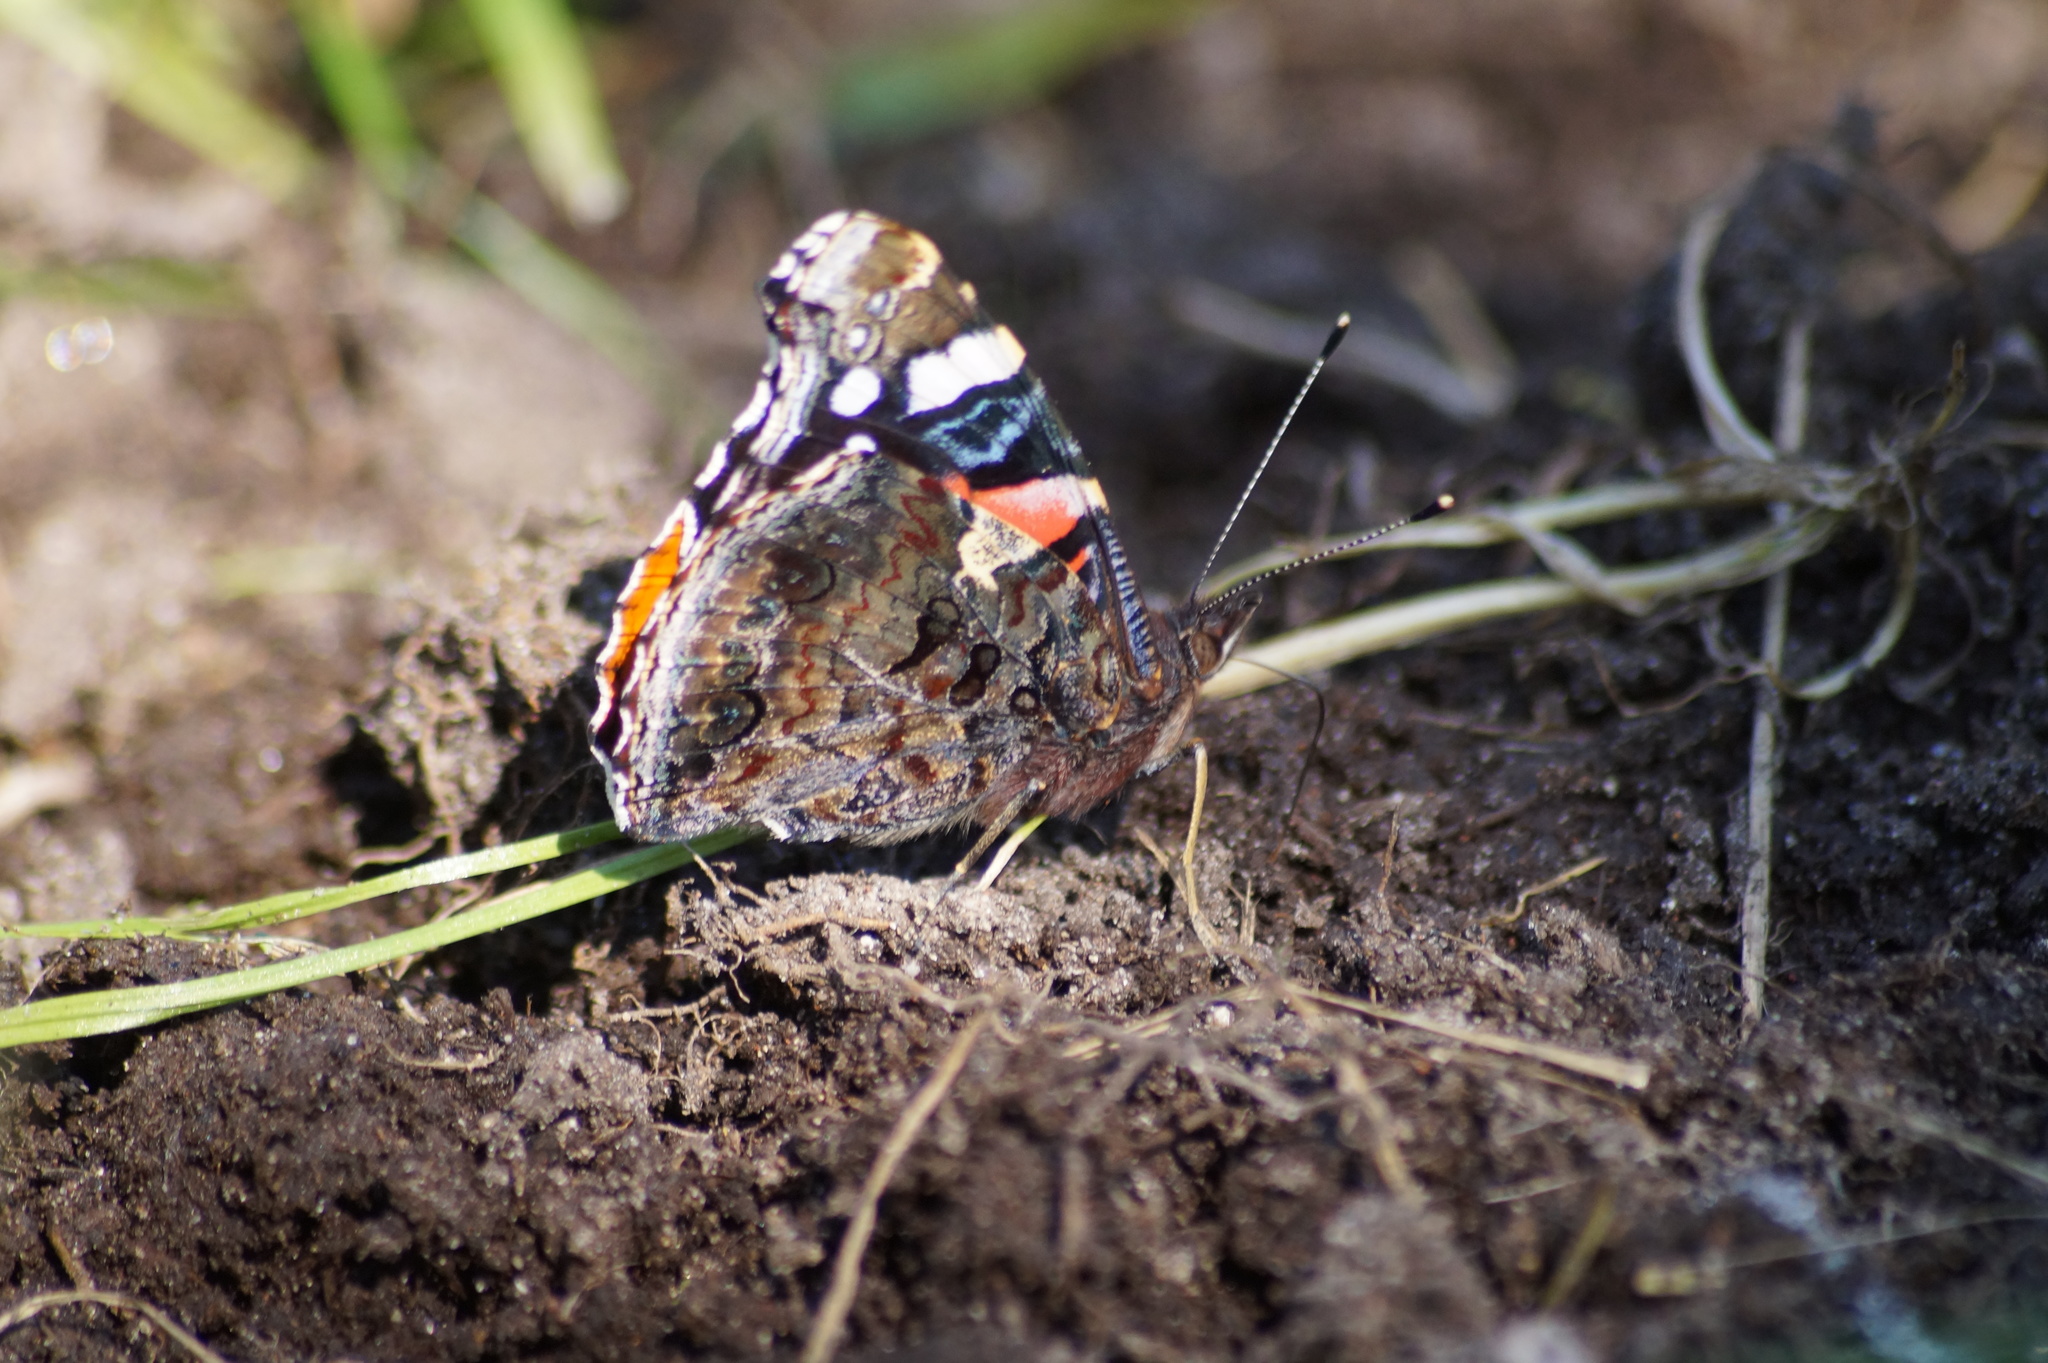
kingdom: Animalia
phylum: Arthropoda
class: Insecta
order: Lepidoptera
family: Nymphalidae
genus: Vanessa
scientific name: Vanessa atalanta
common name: Red admiral
